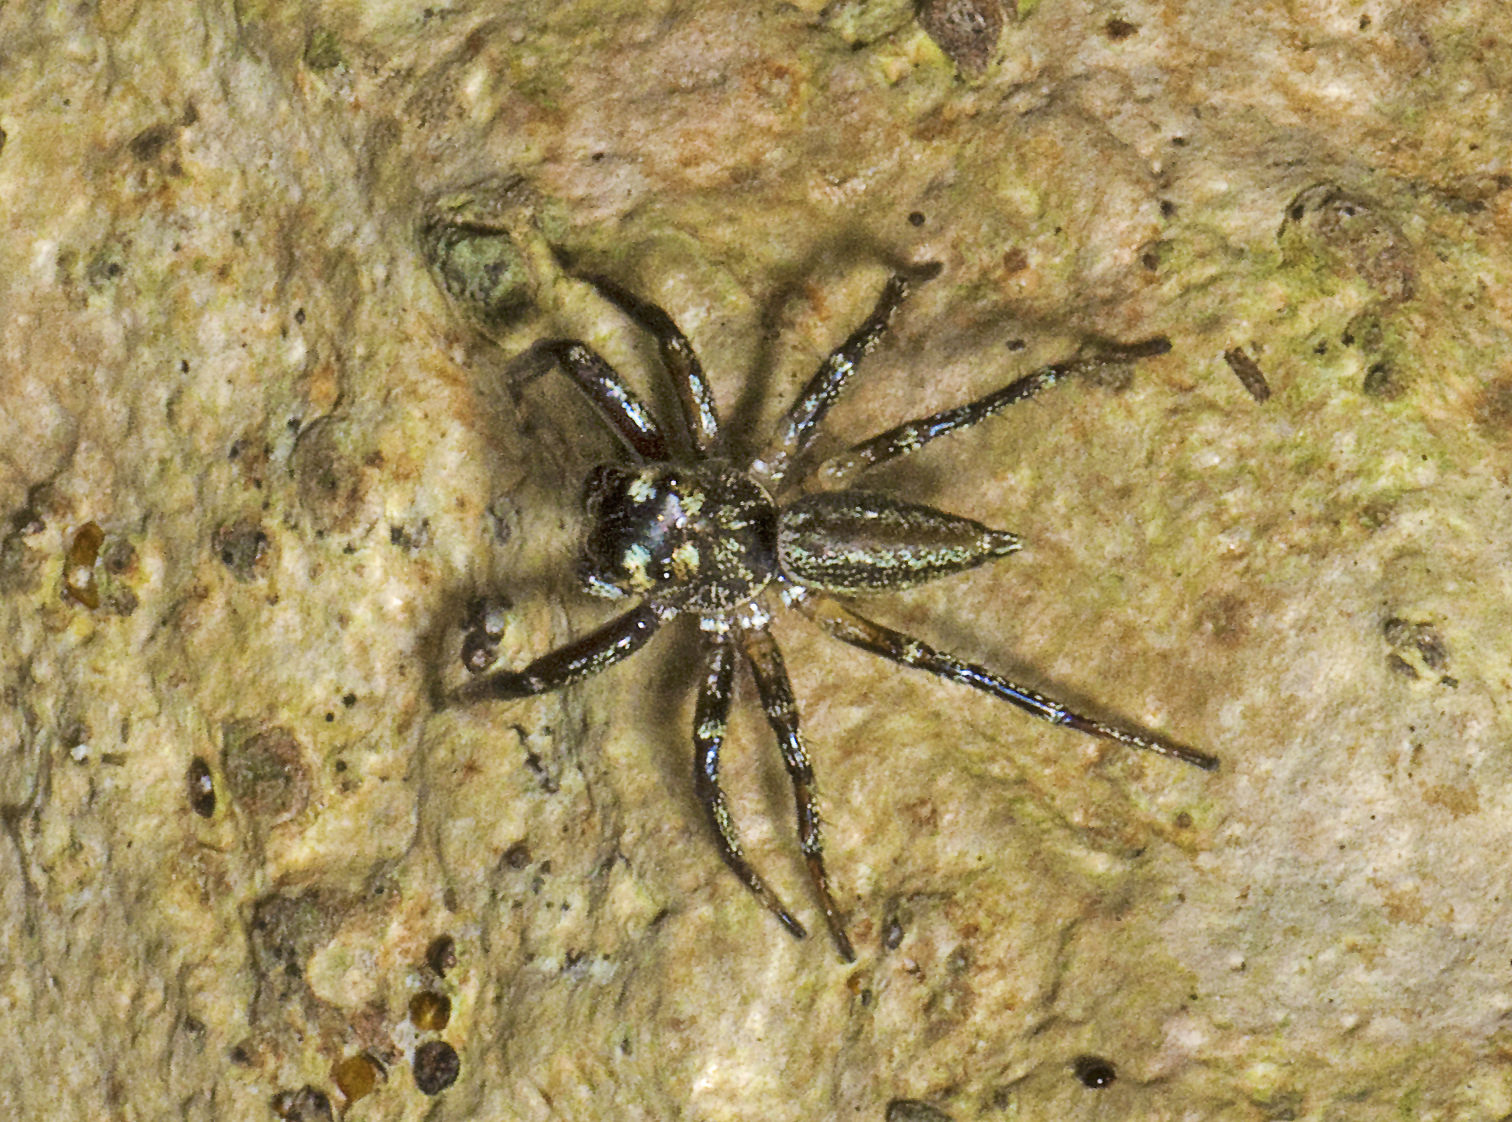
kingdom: Animalia
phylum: Arthropoda
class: Arachnida
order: Araneae
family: Salticidae
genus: Zenodorus
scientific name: Zenodorus swiftorum
